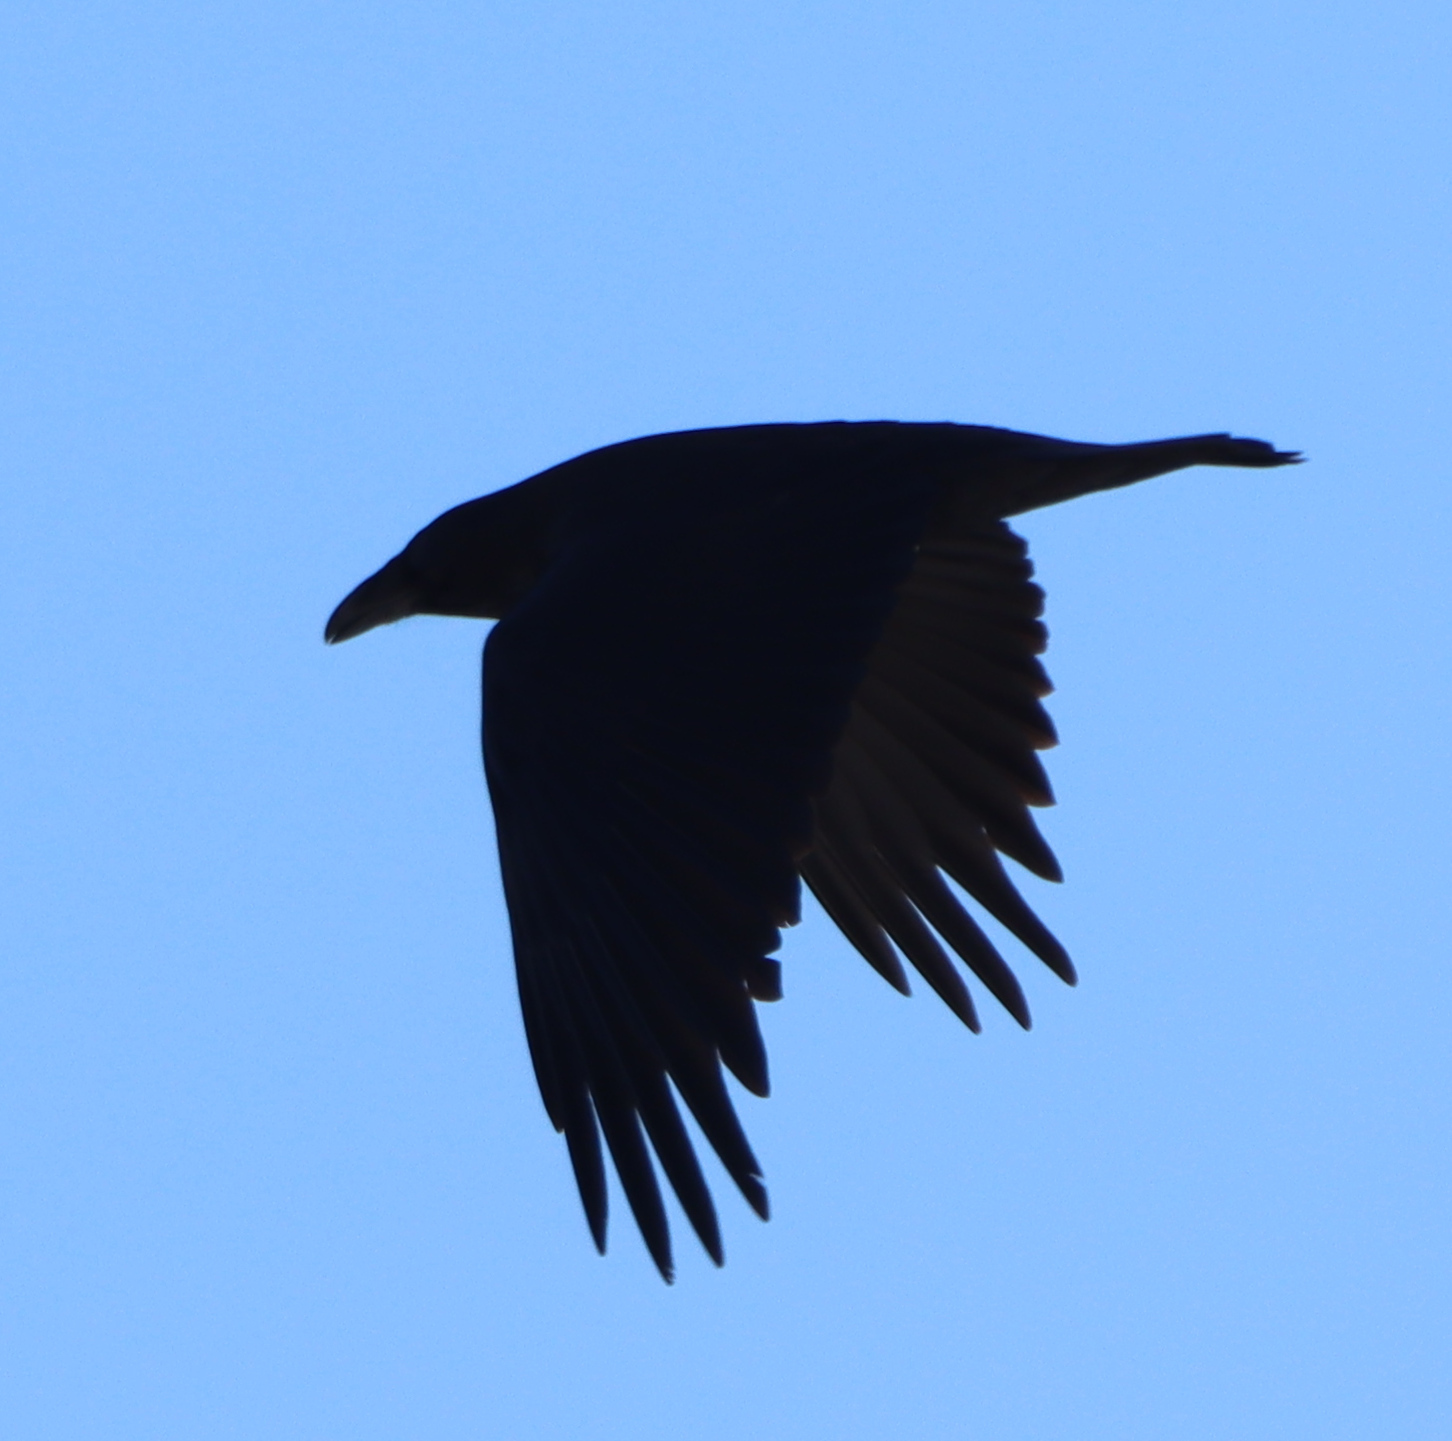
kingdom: Animalia
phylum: Chordata
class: Aves
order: Passeriformes
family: Corvidae
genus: Corvus
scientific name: Corvus corax
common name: Common raven
